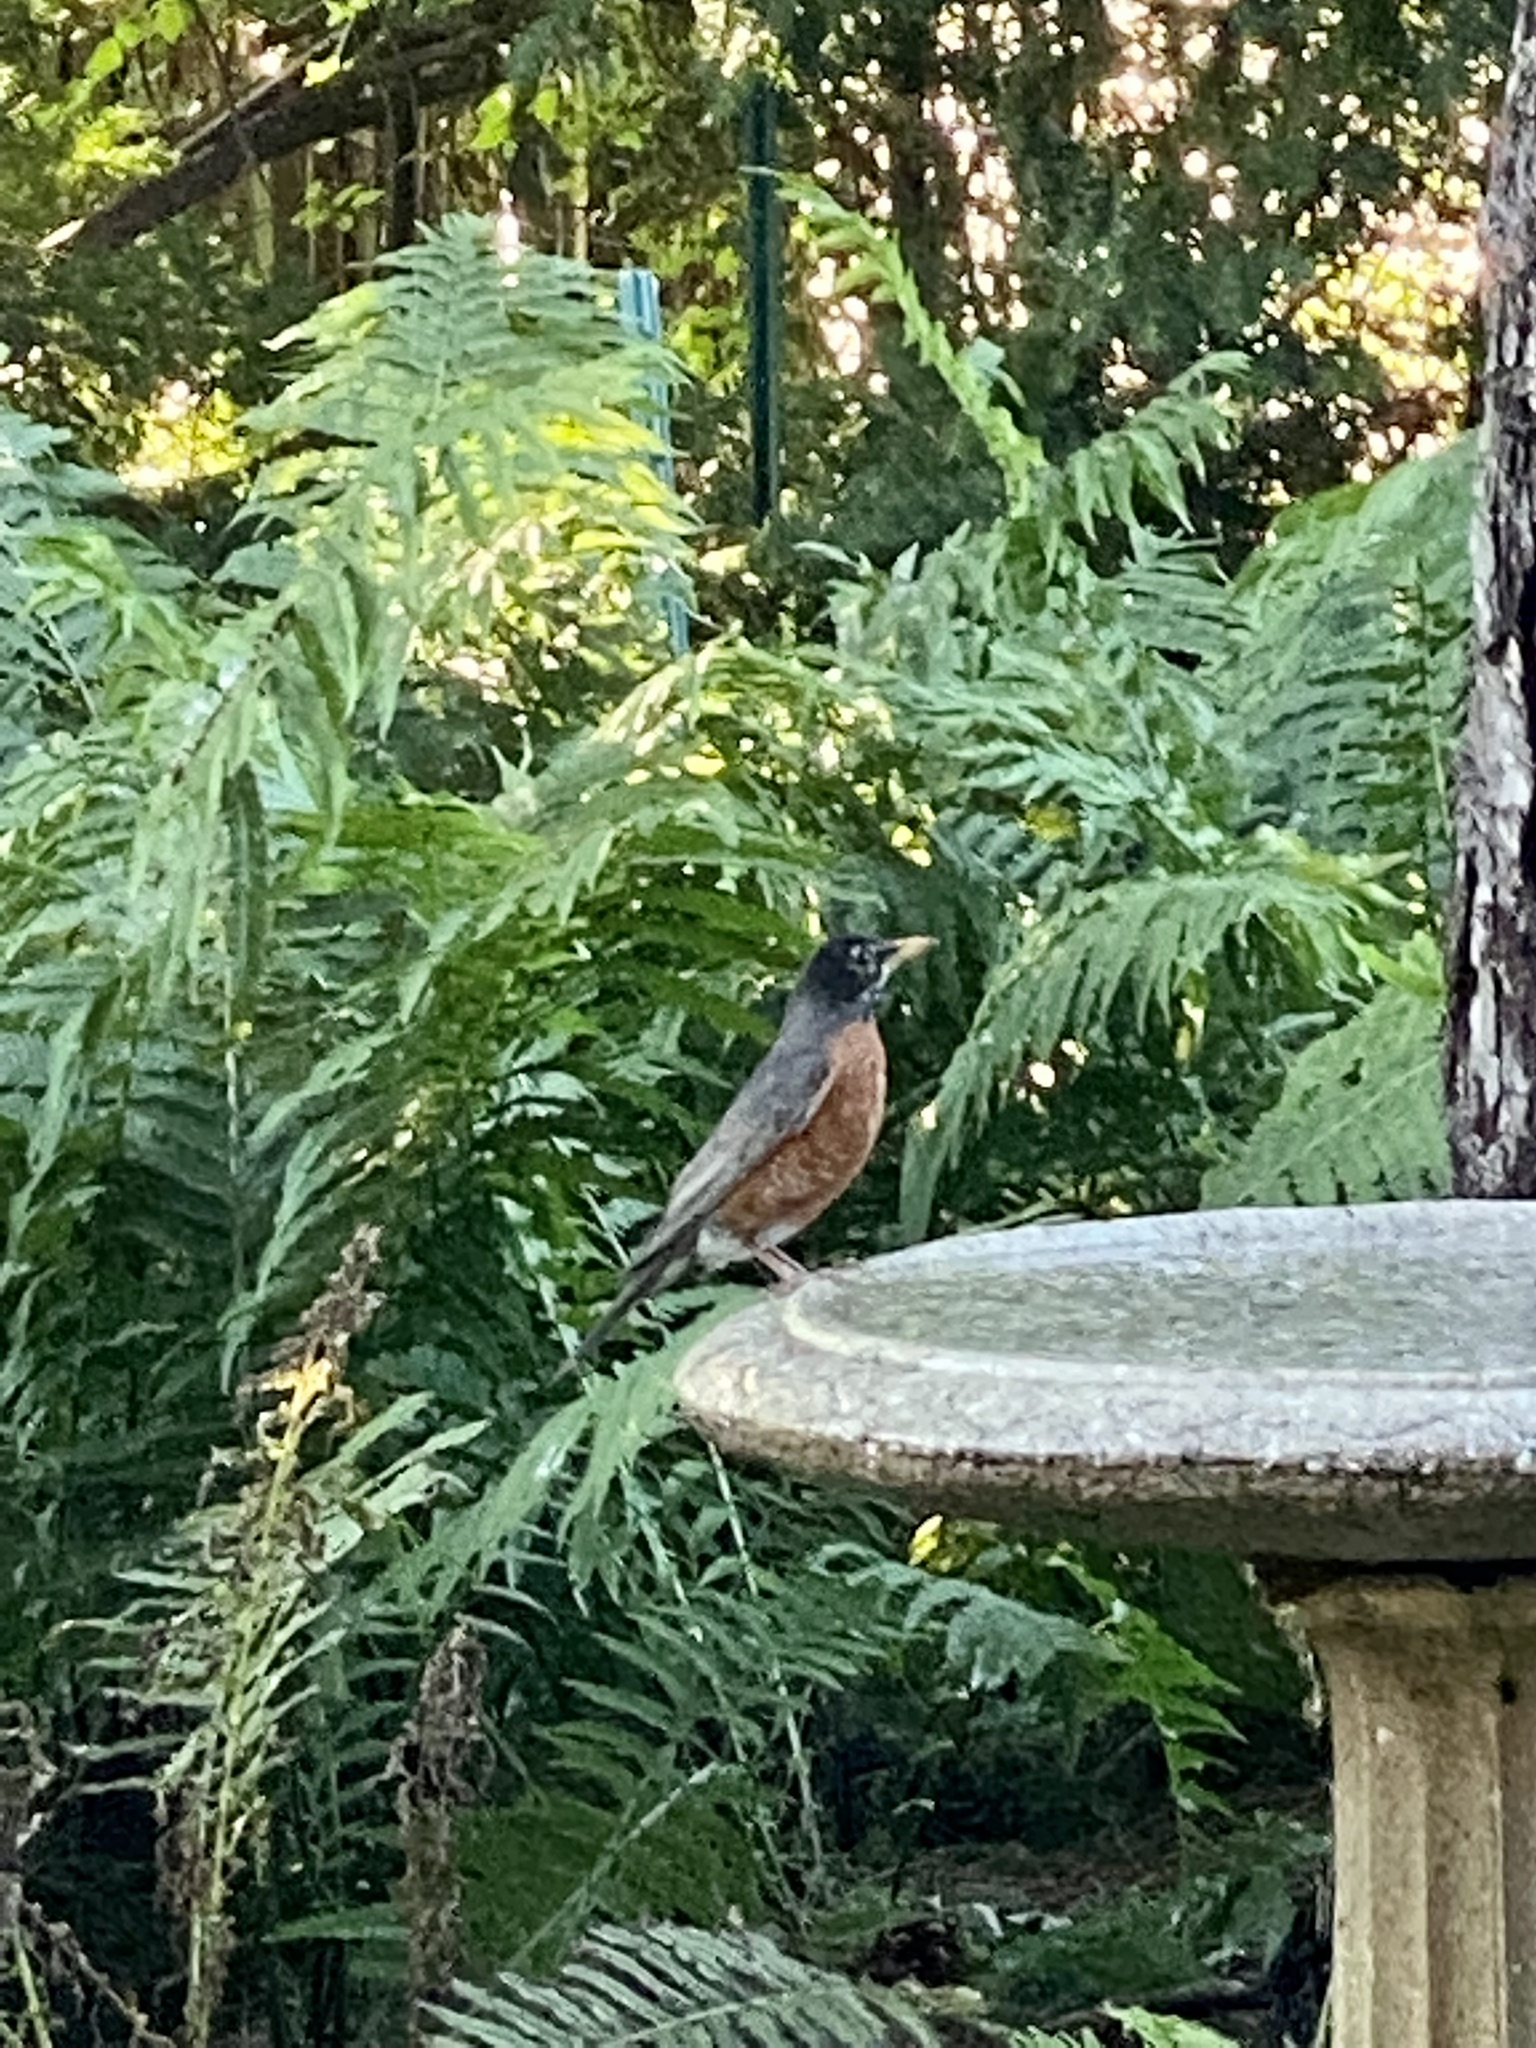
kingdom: Animalia
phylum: Chordata
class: Aves
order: Passeriformes
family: Turdidae
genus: Turdus
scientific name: Turdus migratorius
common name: American robin
